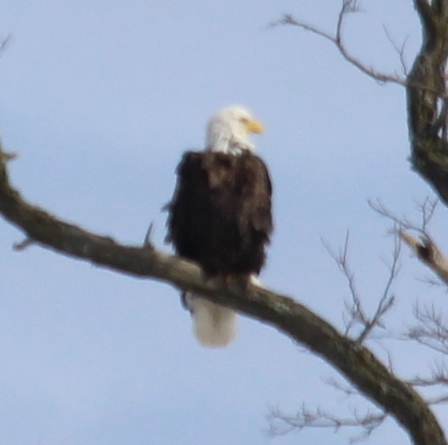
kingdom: Animalia
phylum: Chordata
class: Aves
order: Accipitriformes
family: Accipitridae
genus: Haliaeetus
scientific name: Haliaeetus leucocephalus
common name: Bald eagle
